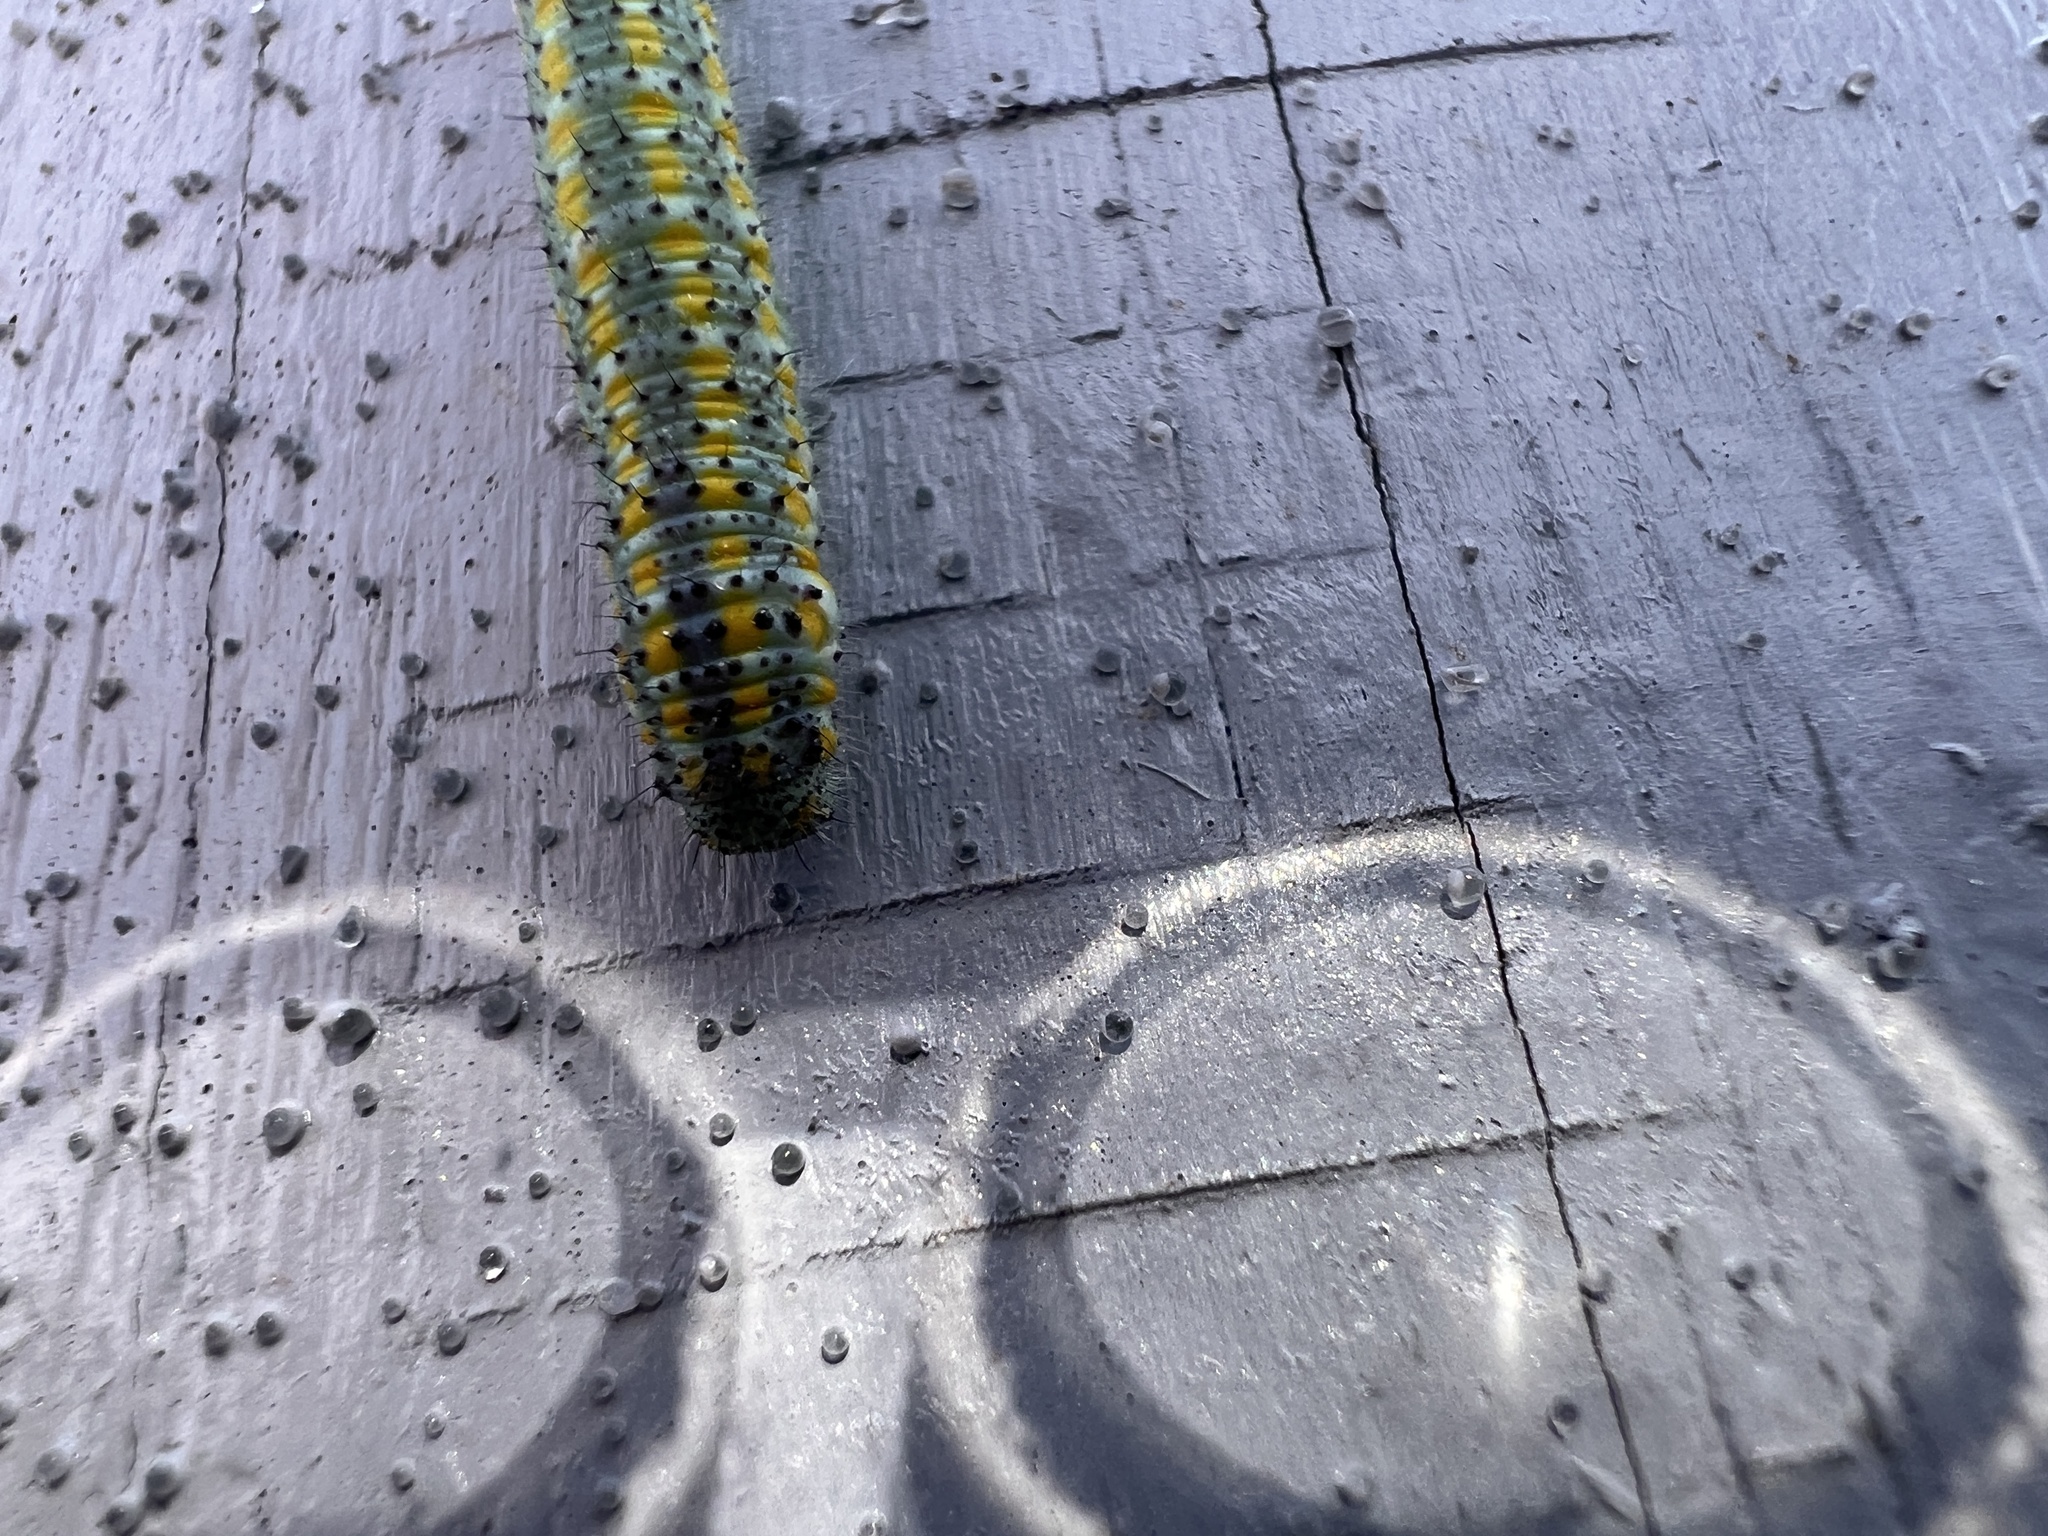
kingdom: Animalia
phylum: Arthropoda
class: Insecta
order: Lepidoptera
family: Pieridae
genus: Pontia
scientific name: Pontia protodice
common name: Checkered white
